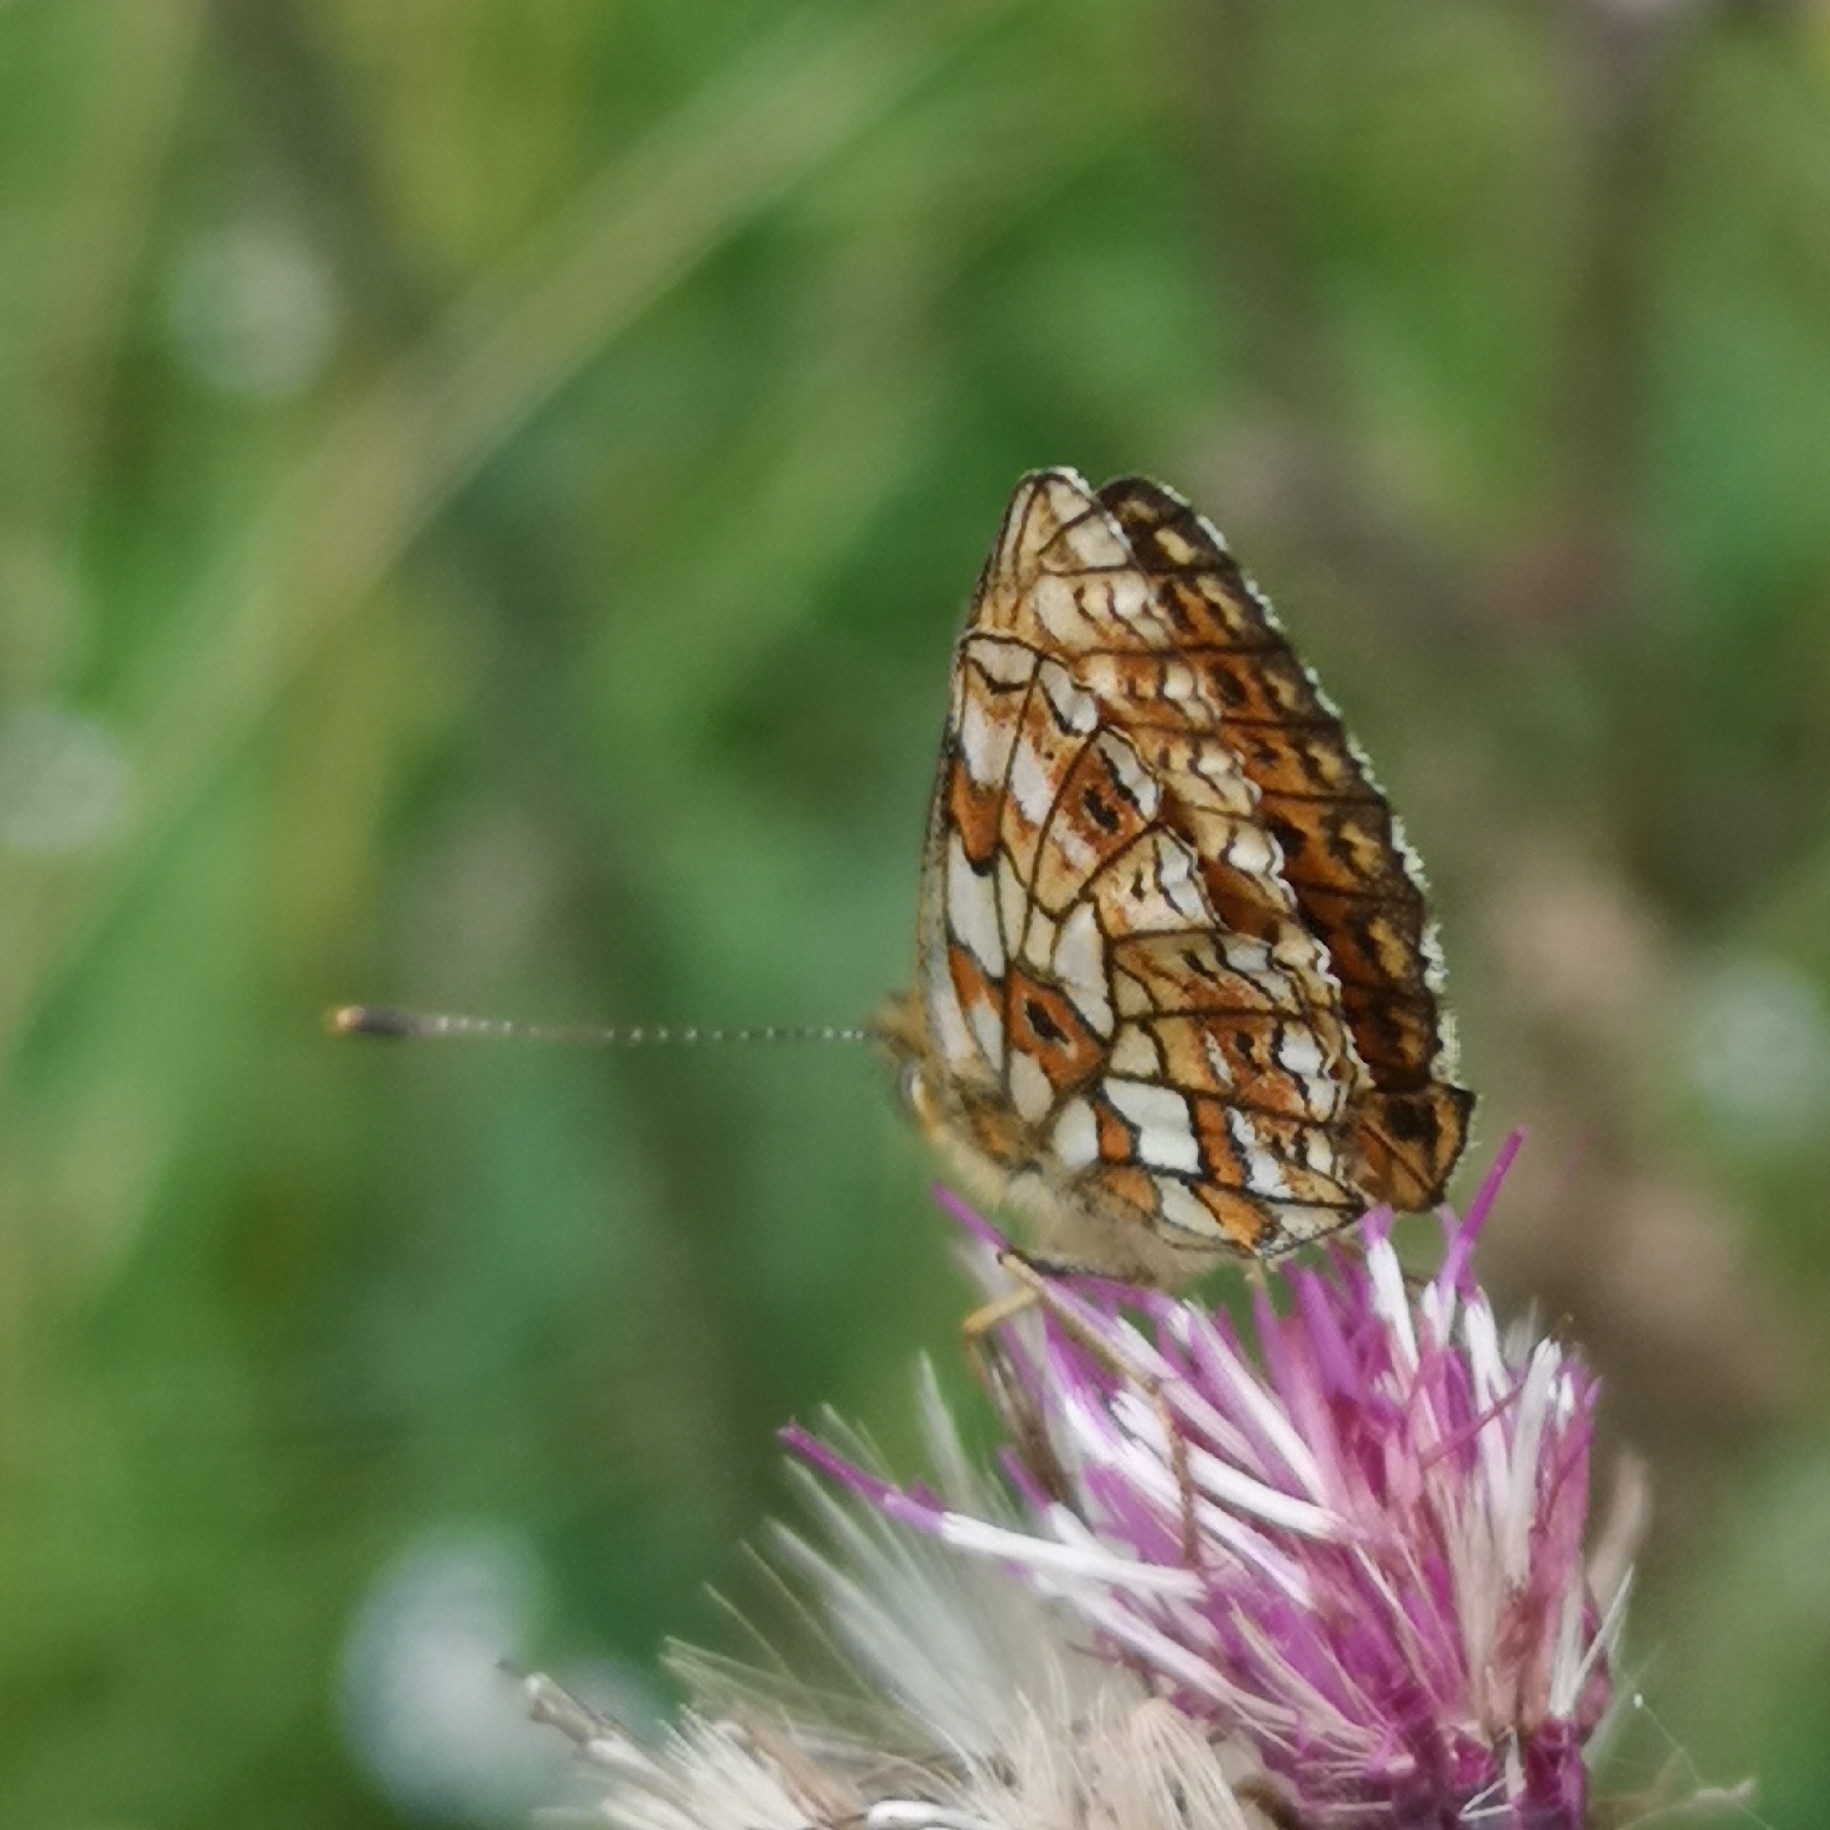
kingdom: Animalia
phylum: Arthropoda
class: Insecta
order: Lepidoptera
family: Nymphalidae
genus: Boloria
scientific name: Boloria selene
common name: Small pearl-bordered fritillary
